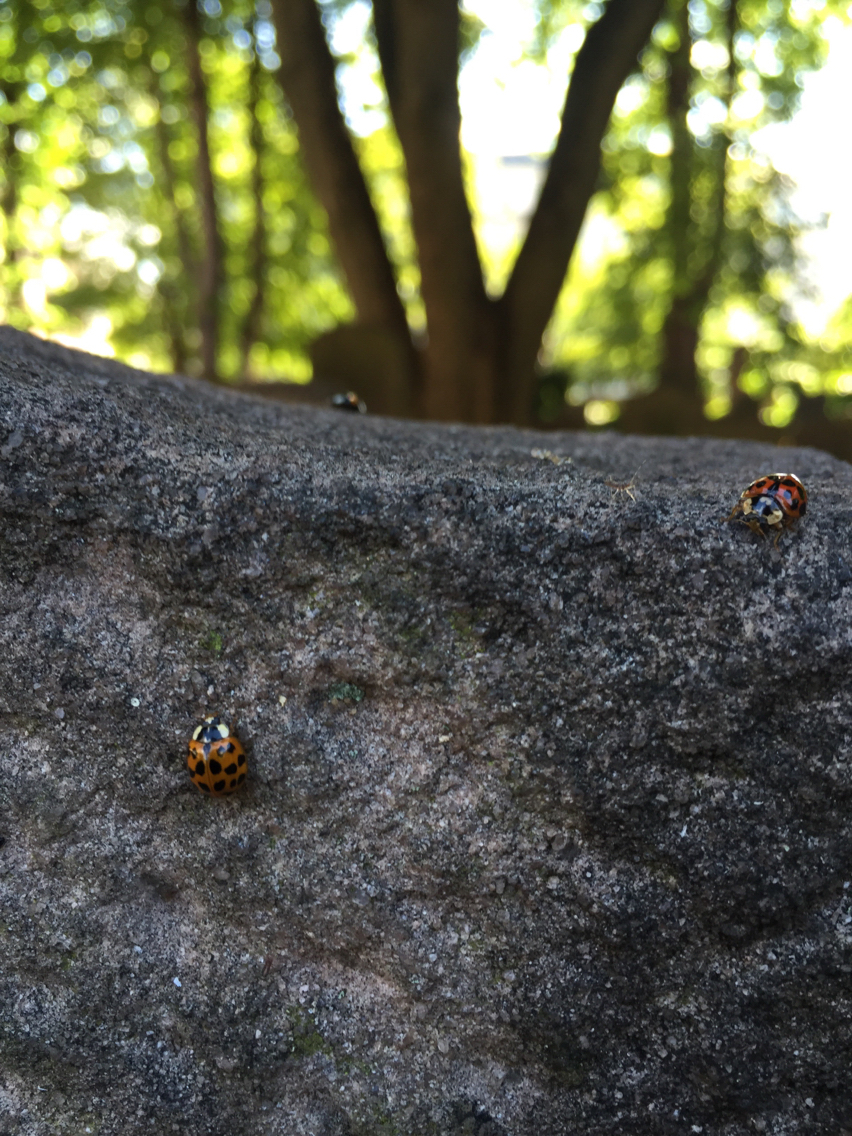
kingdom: Animalia
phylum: Arthropoda
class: Insecta
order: Coleoptera
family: Coccinellidae
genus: Harmonia
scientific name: Harmonia axyridis
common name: Harlequin ladybird
